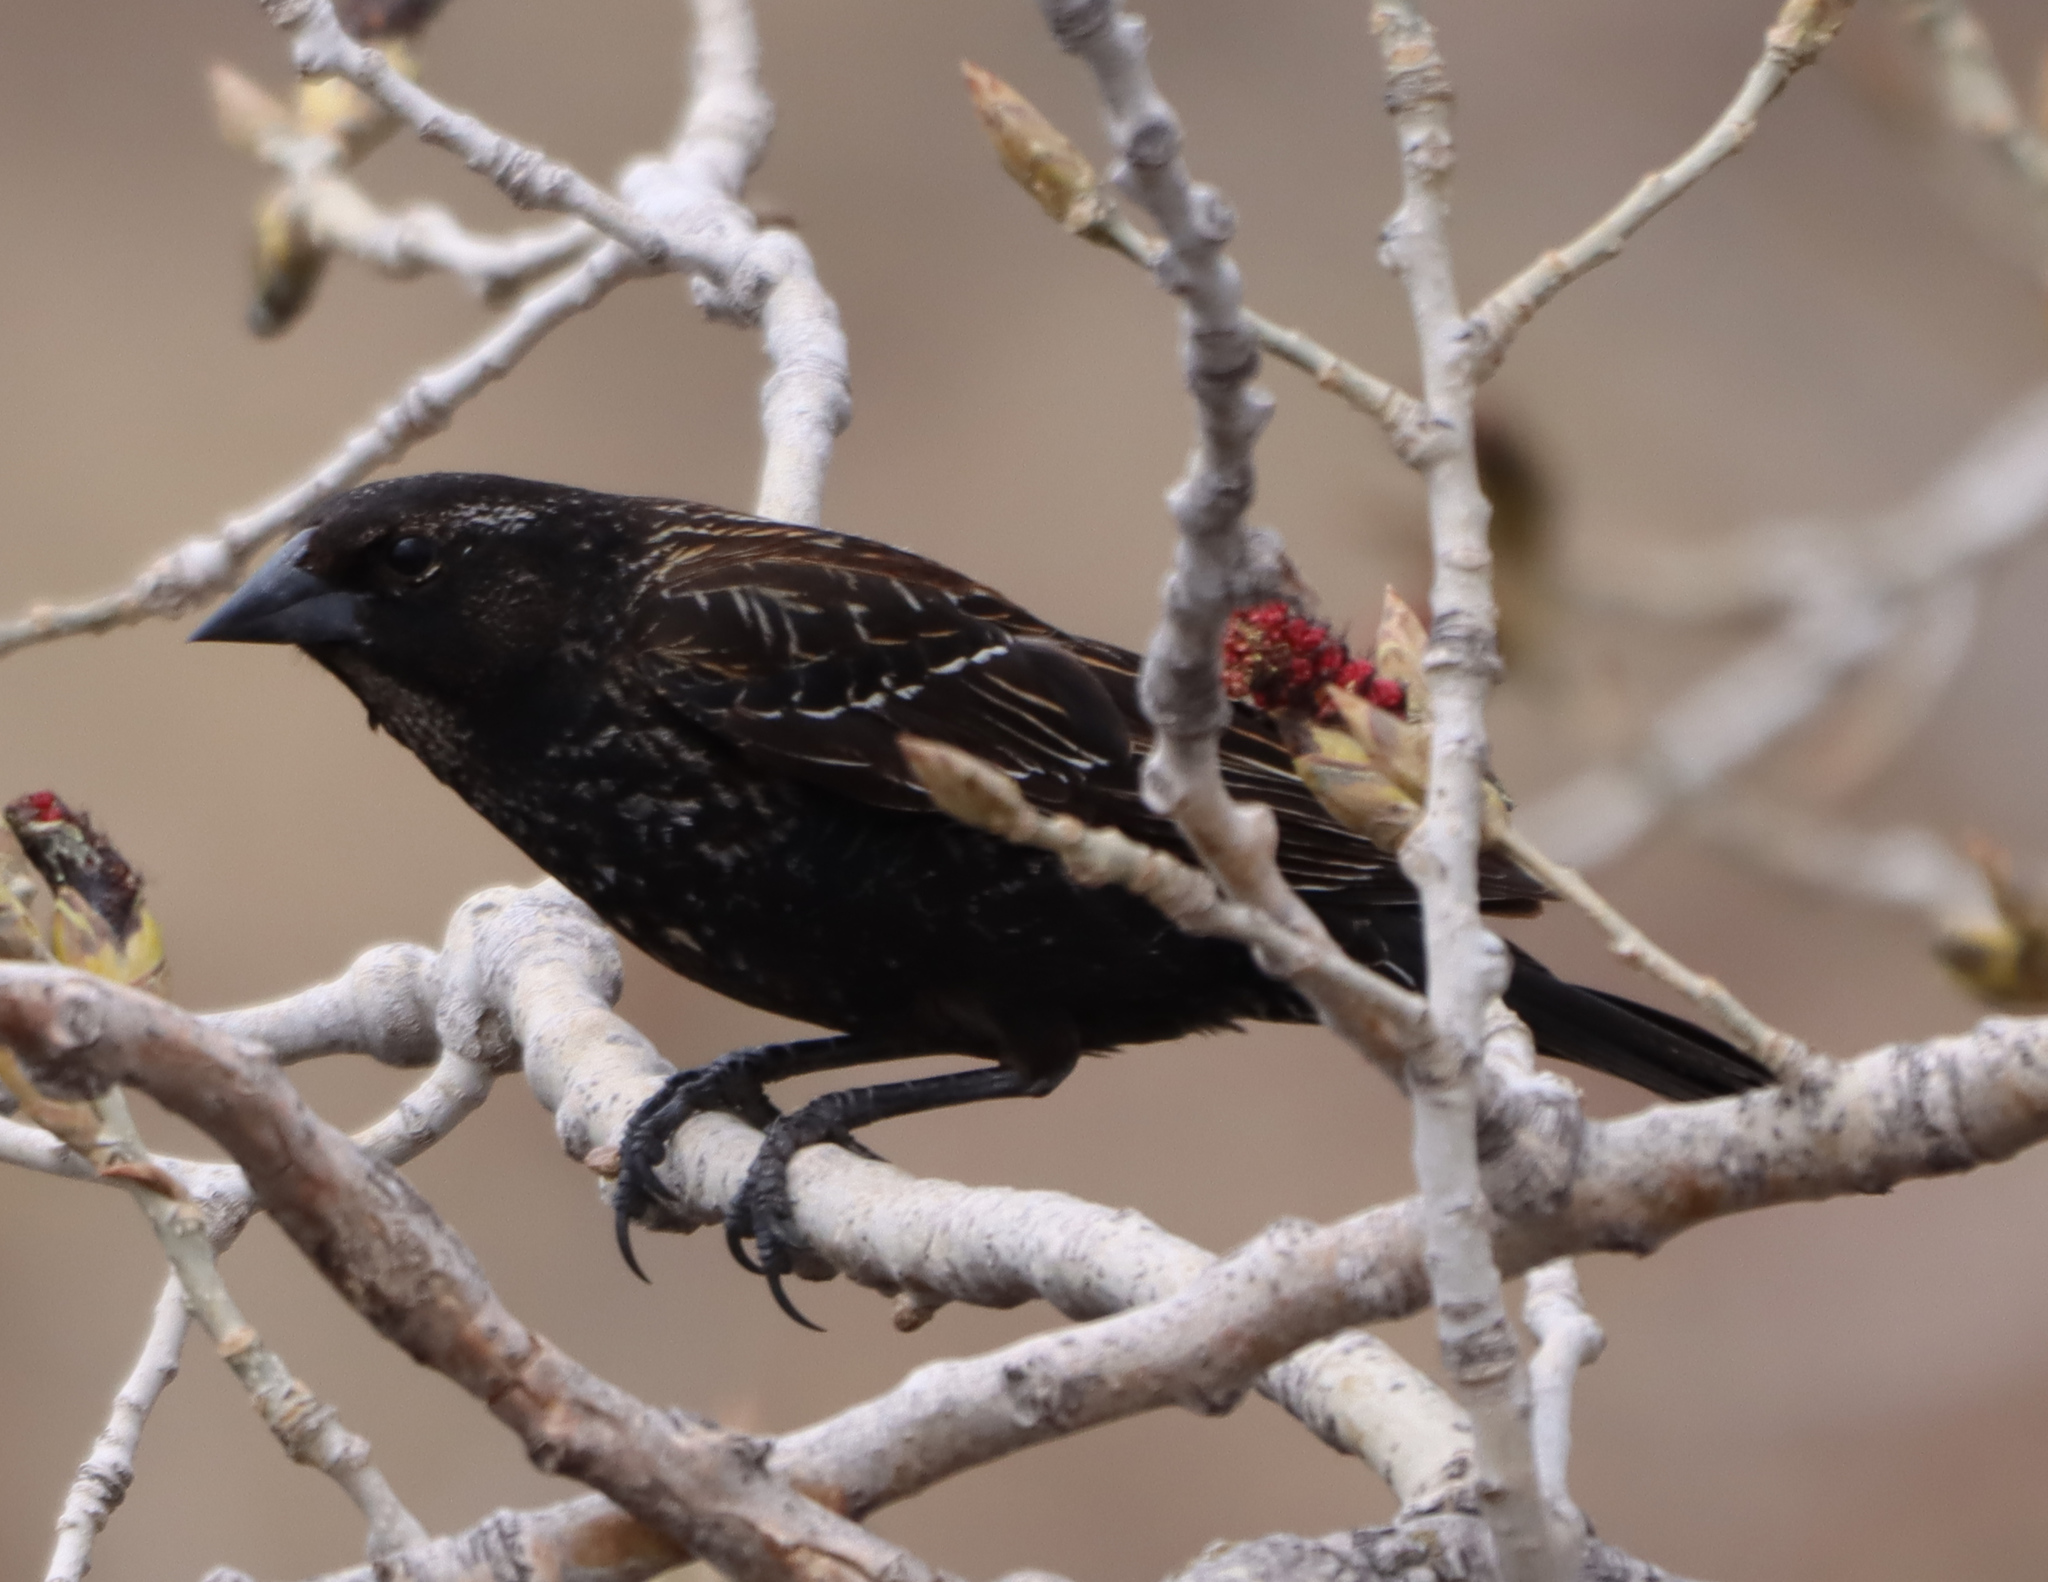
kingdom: Animalia
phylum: Chordata
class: Aves
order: Passeriformes
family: Icteridae
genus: Agelaius
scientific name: Agelaius phoeniceus
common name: Red-winged blackbird
